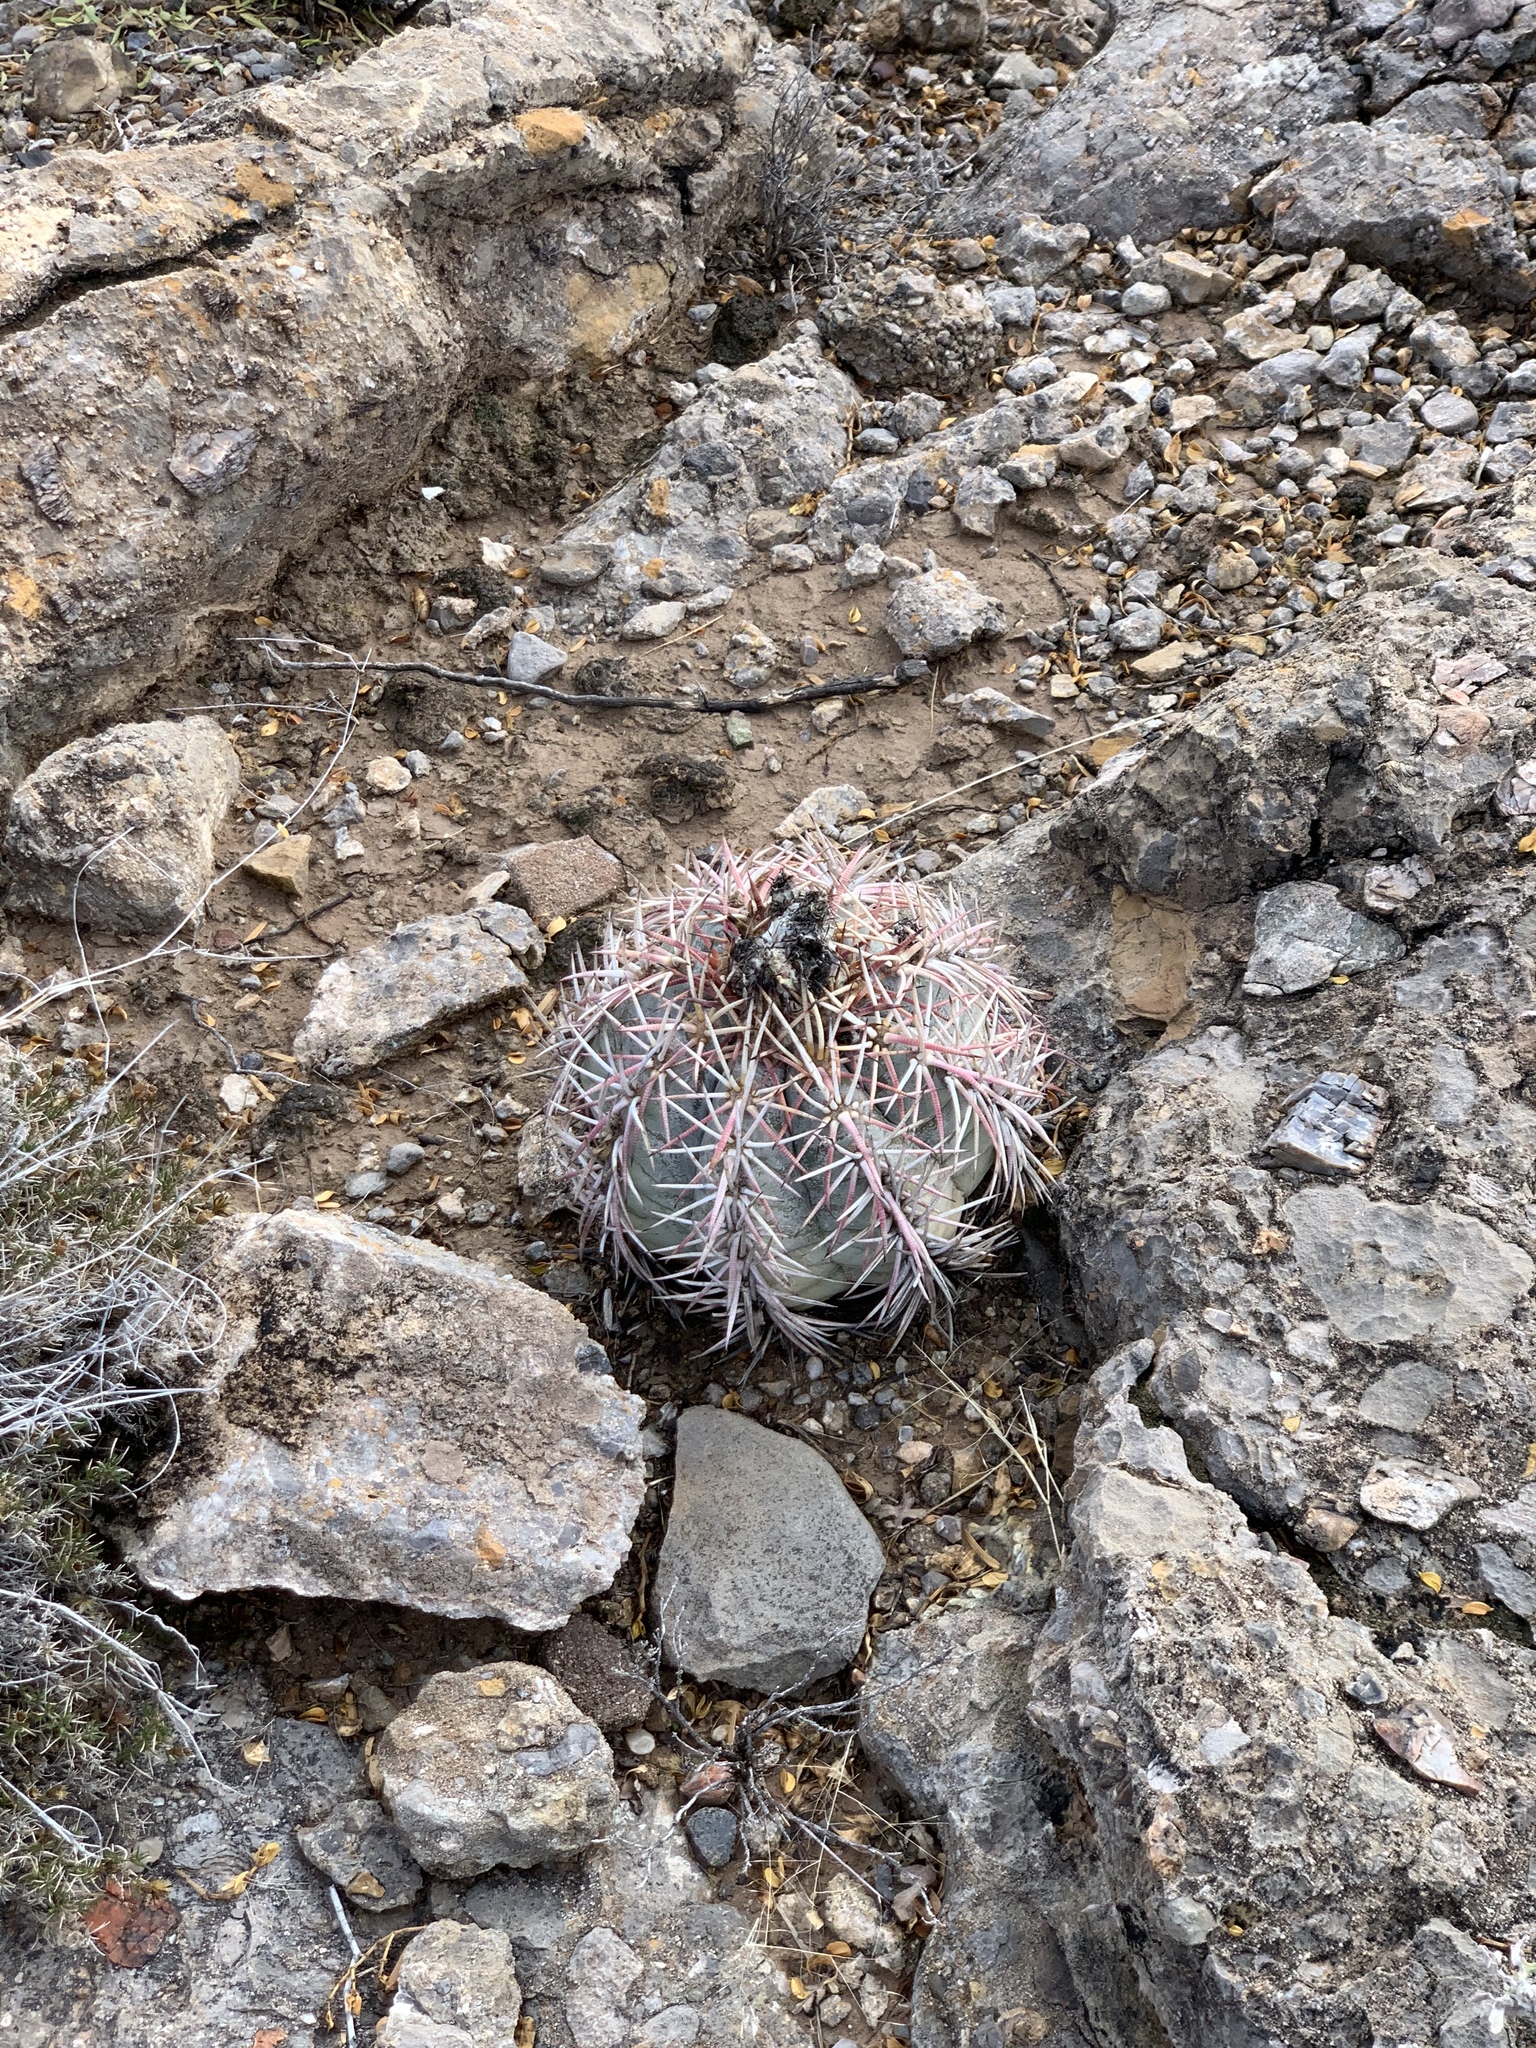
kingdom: Plantae
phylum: Tracheophyta
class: Magnoliopsida
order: Caryophyllales
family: Cactaceae
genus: Echinocactus
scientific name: Echinocactus horizonthalonius
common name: Devilshead
